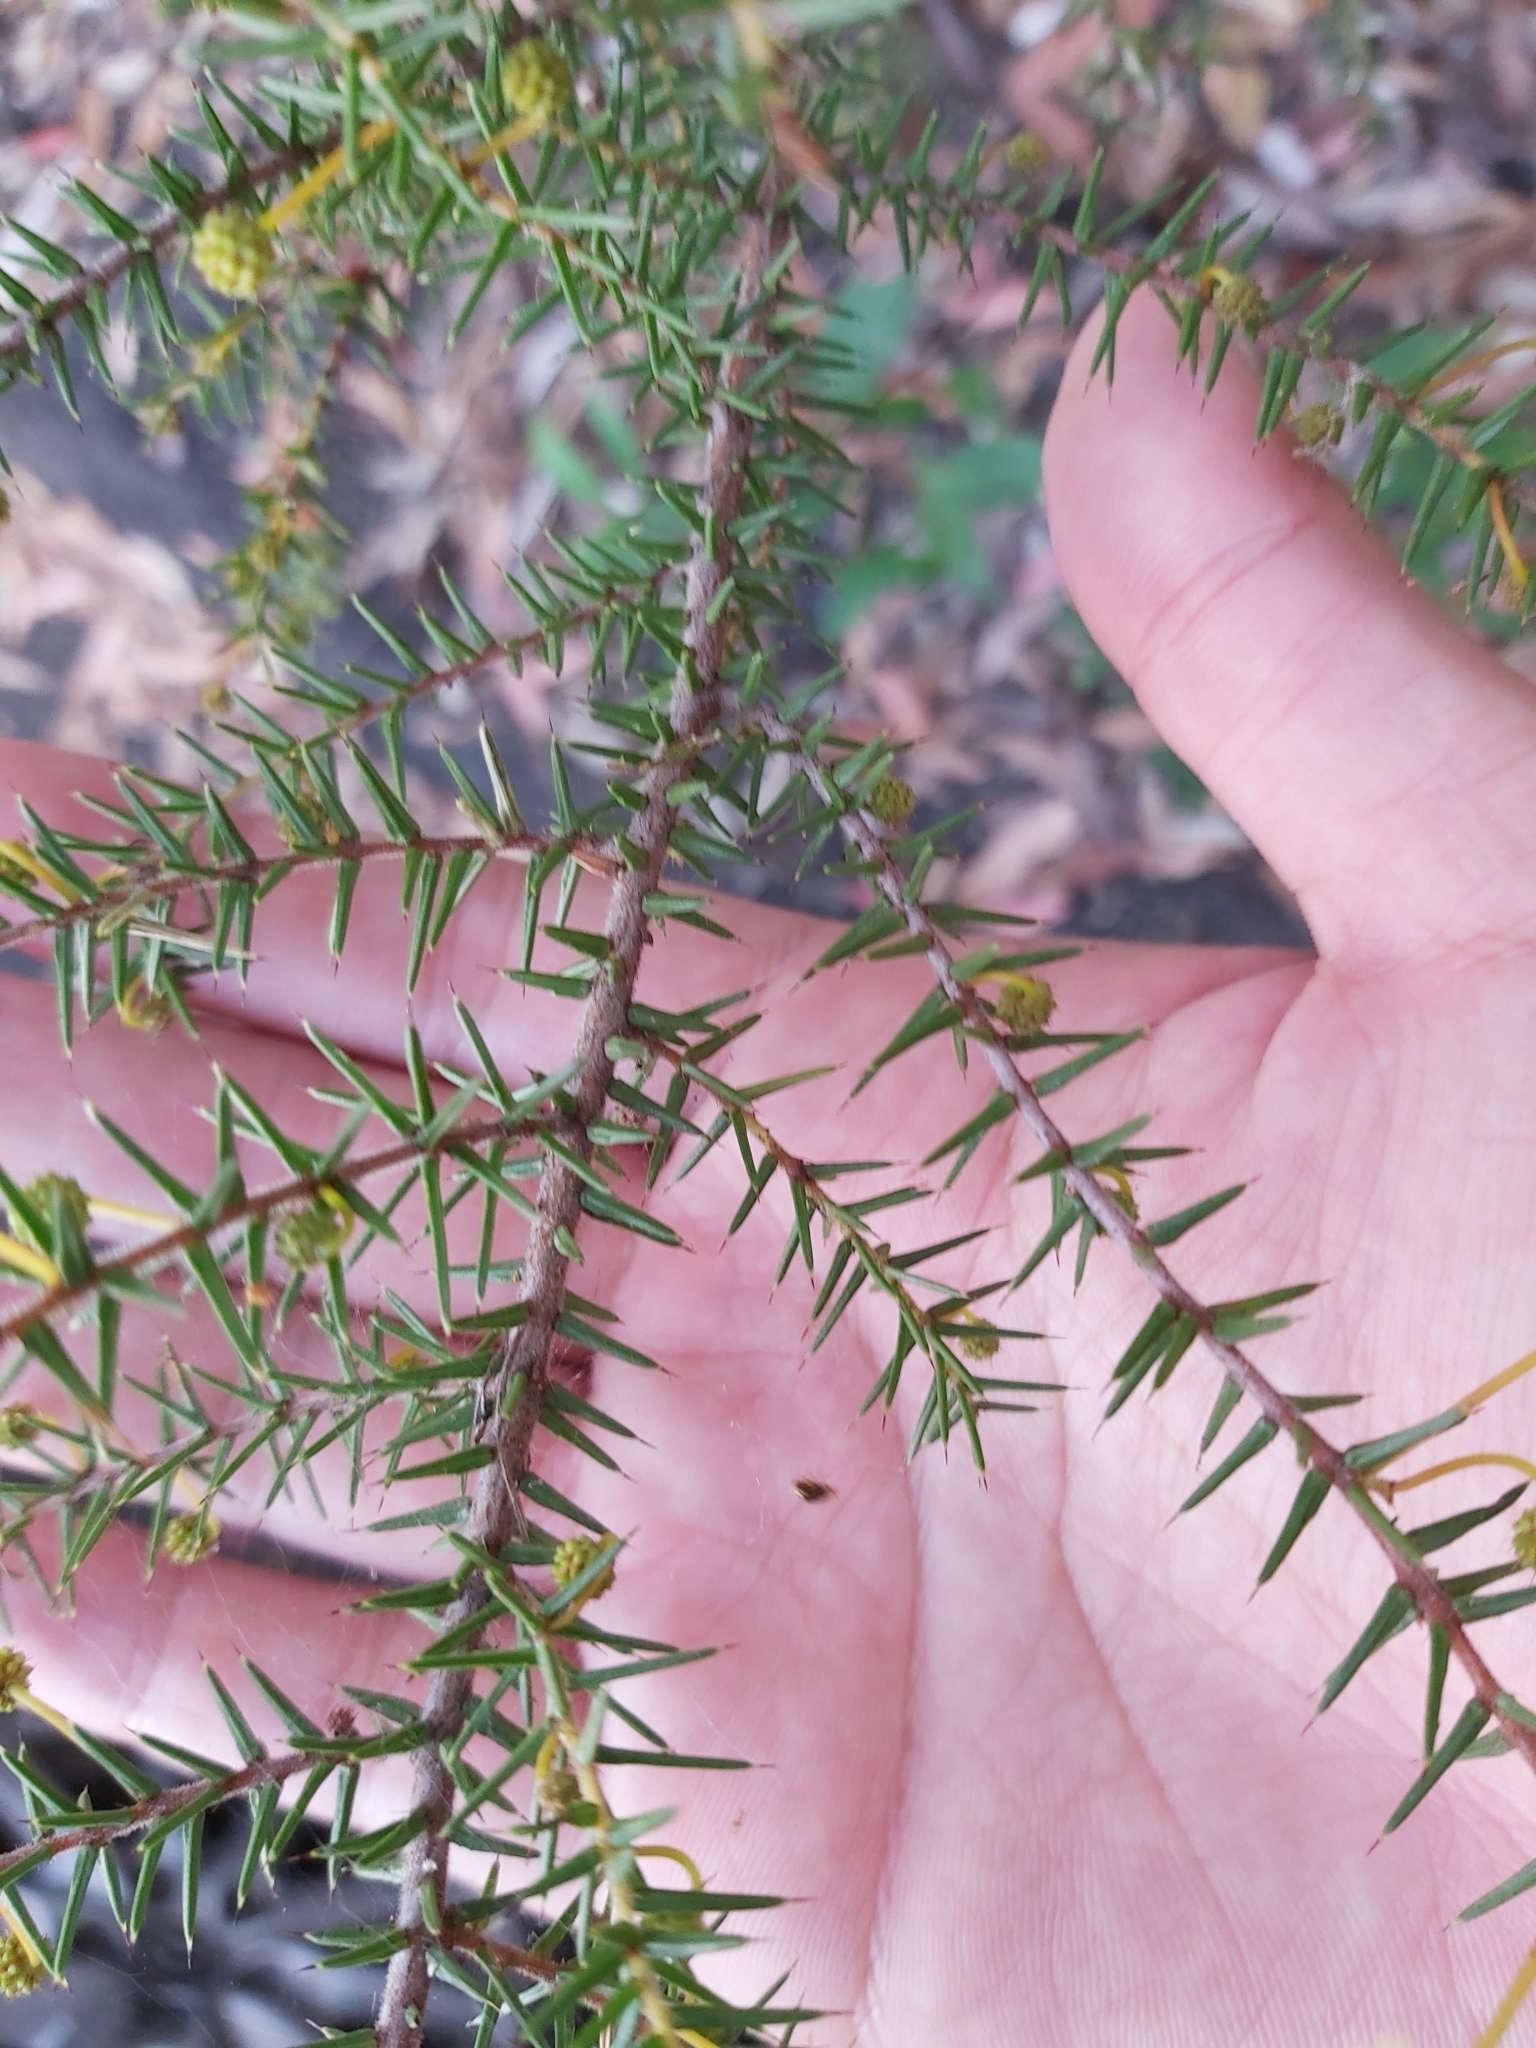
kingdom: Plantae
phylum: Tracheophyta
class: Magnoliopsida
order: Fabales
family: Fabaceae
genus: Acacia
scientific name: Acacia ulicifolia
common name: Juniper wattle
